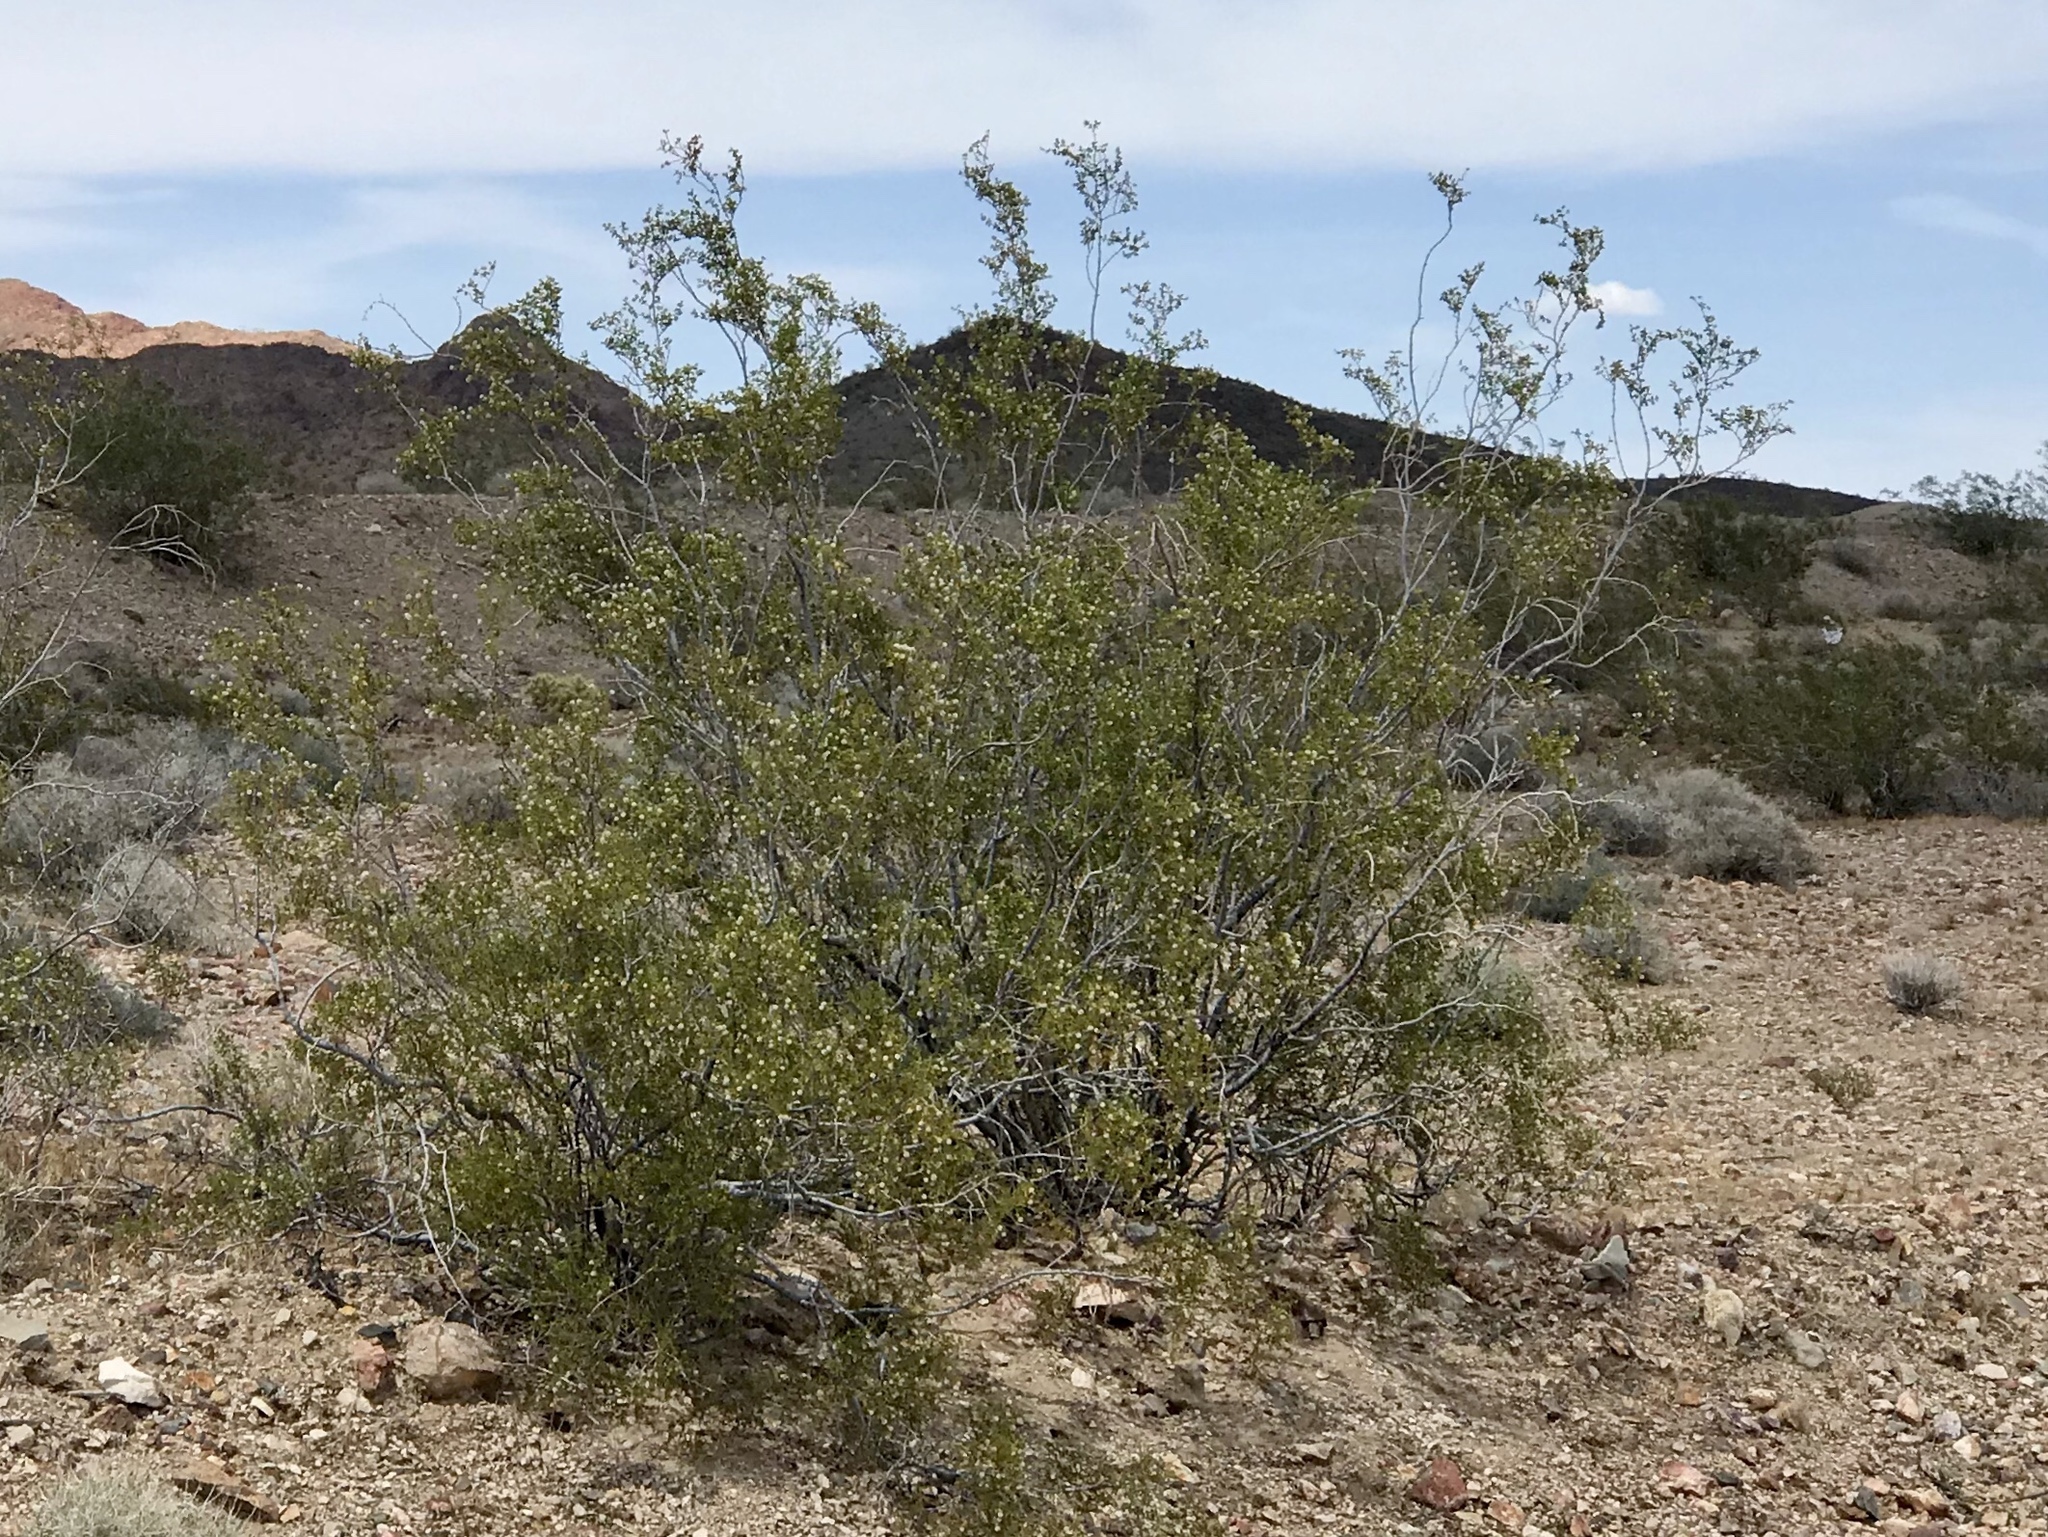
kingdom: Plantae
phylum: Tracheophyta
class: Magnoliopsida
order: Zygophyllales
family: Zygophyllaceae
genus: Larrea
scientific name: Larrea tridentata
